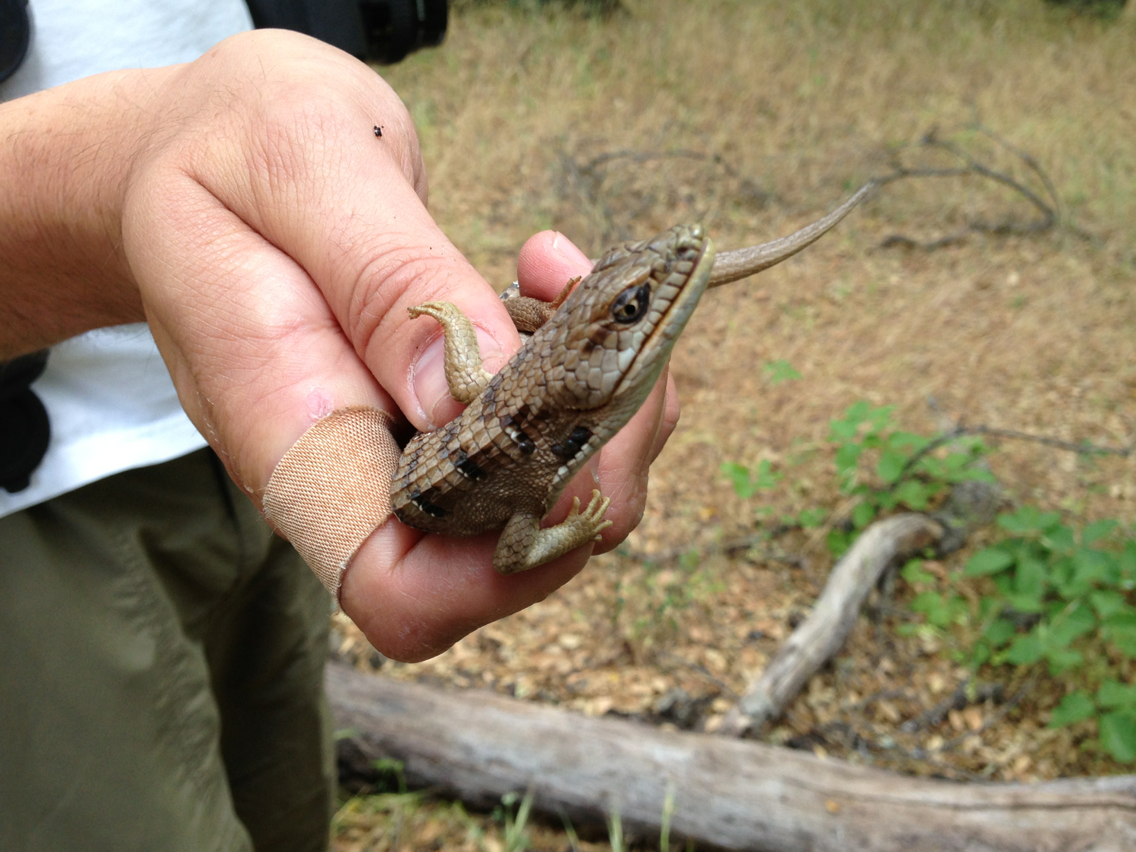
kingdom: Animalia
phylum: Chordata
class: Squamata
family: Anguidae
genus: Elgaria
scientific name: Elgaria multicarinata
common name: Southern alligator lizard
